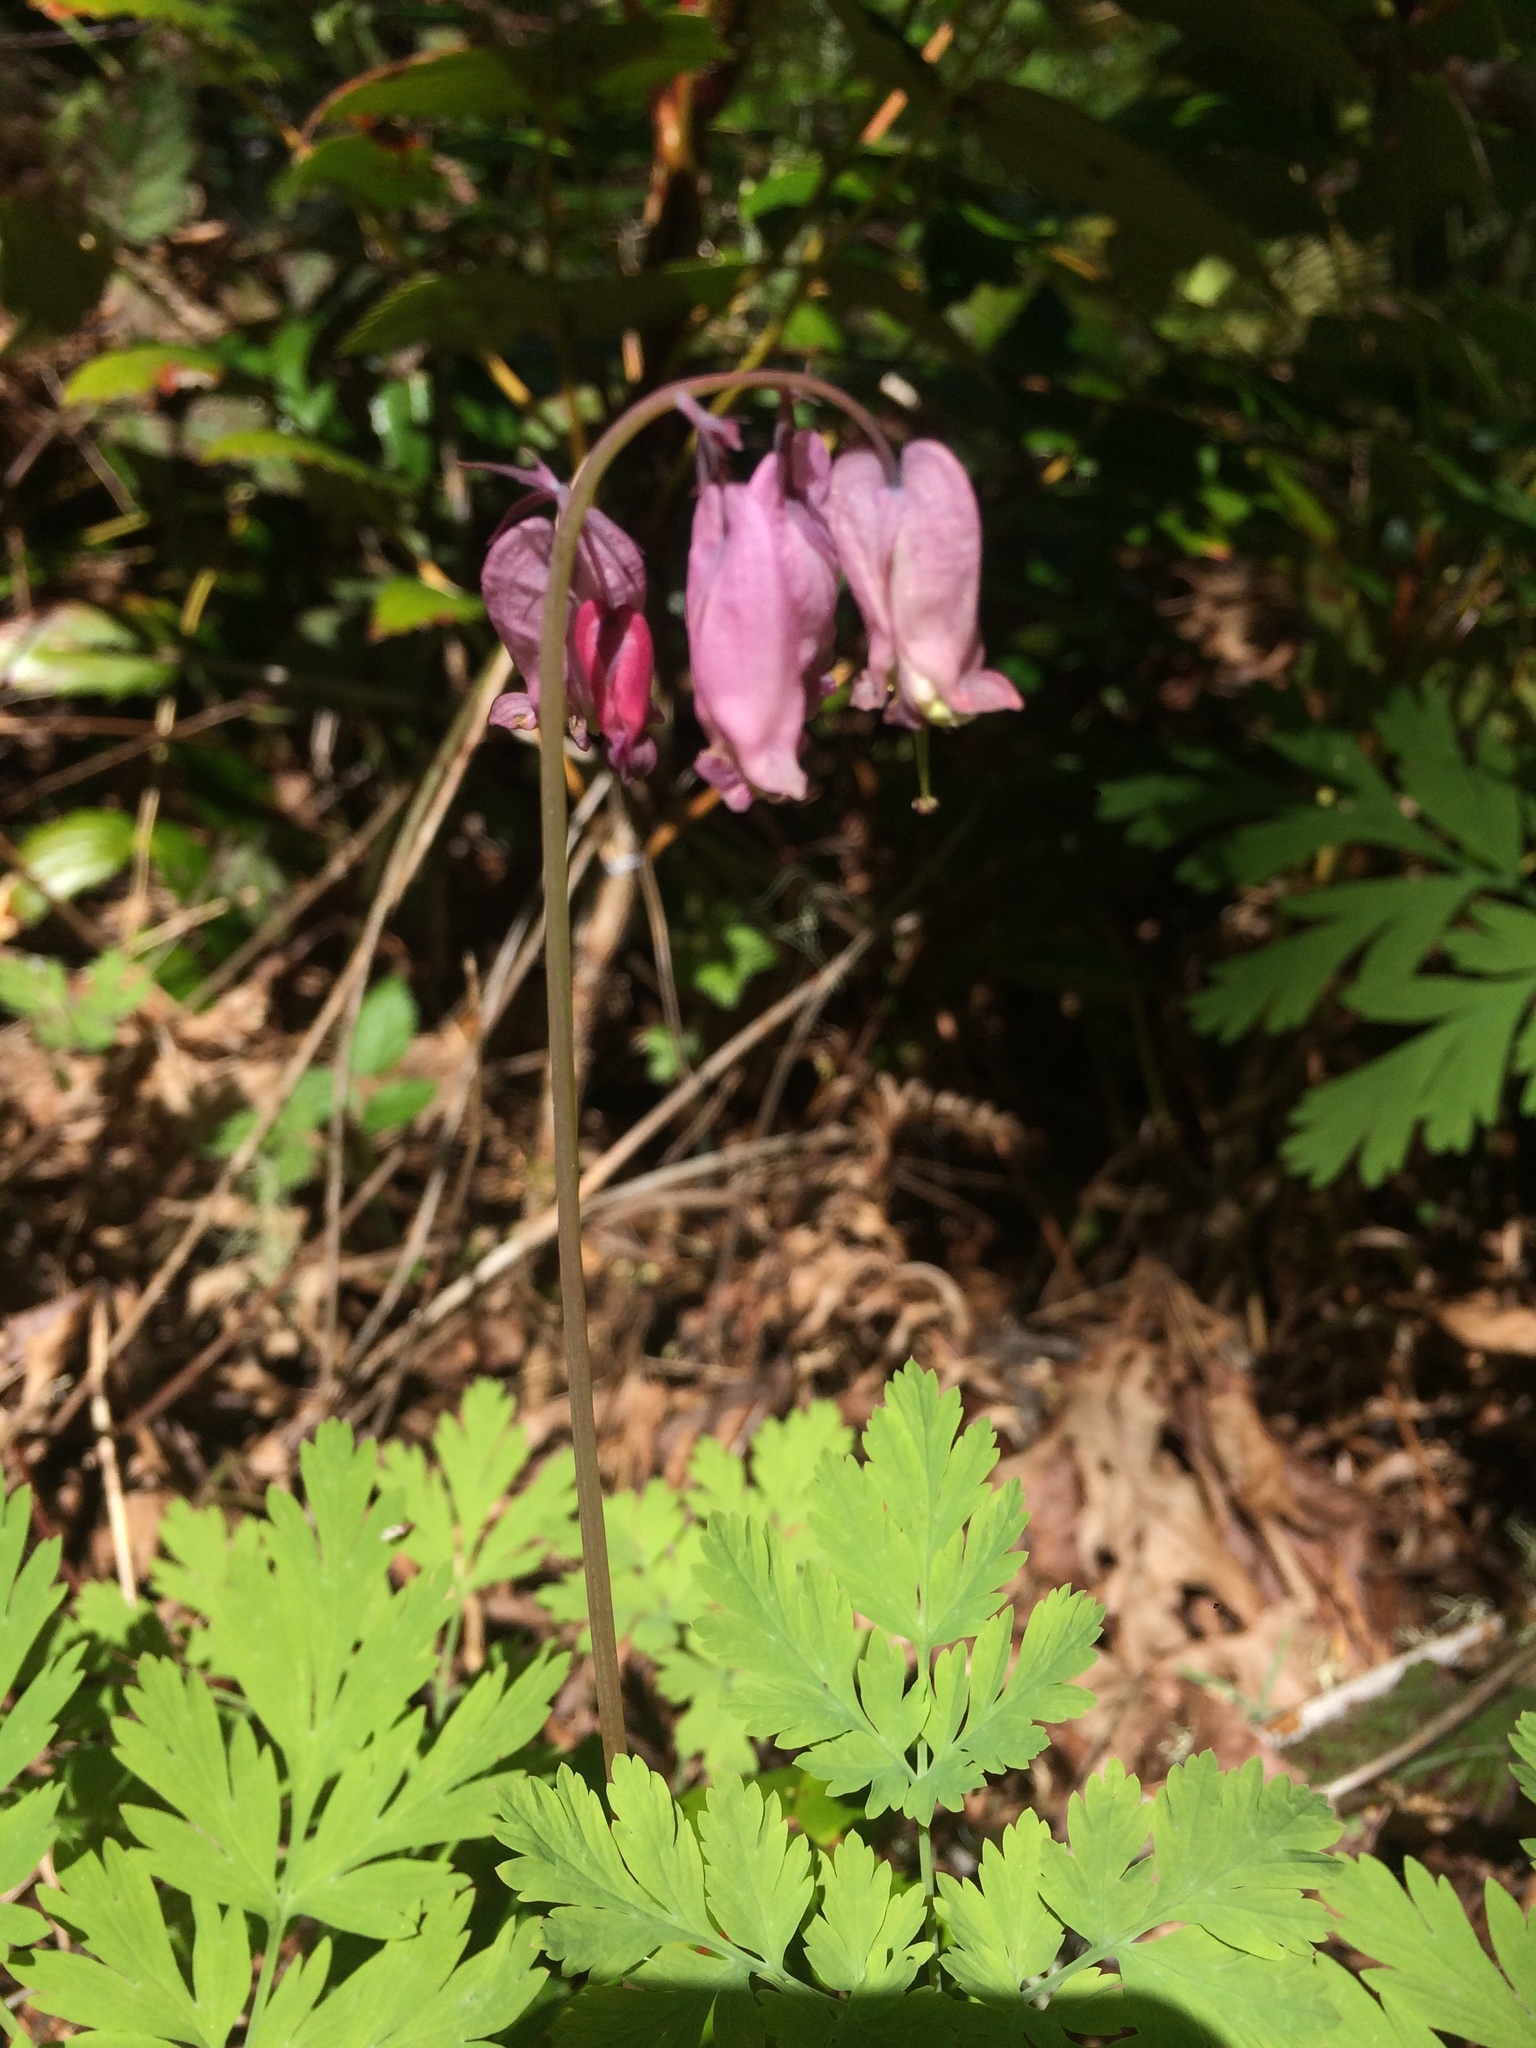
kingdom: Plantae
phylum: Tracheophyta
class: Magnoliopsida
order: Ranunculales
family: Papaveraceae
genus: Dicentra
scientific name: Dicentra formosa
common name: Bleeding-heart
